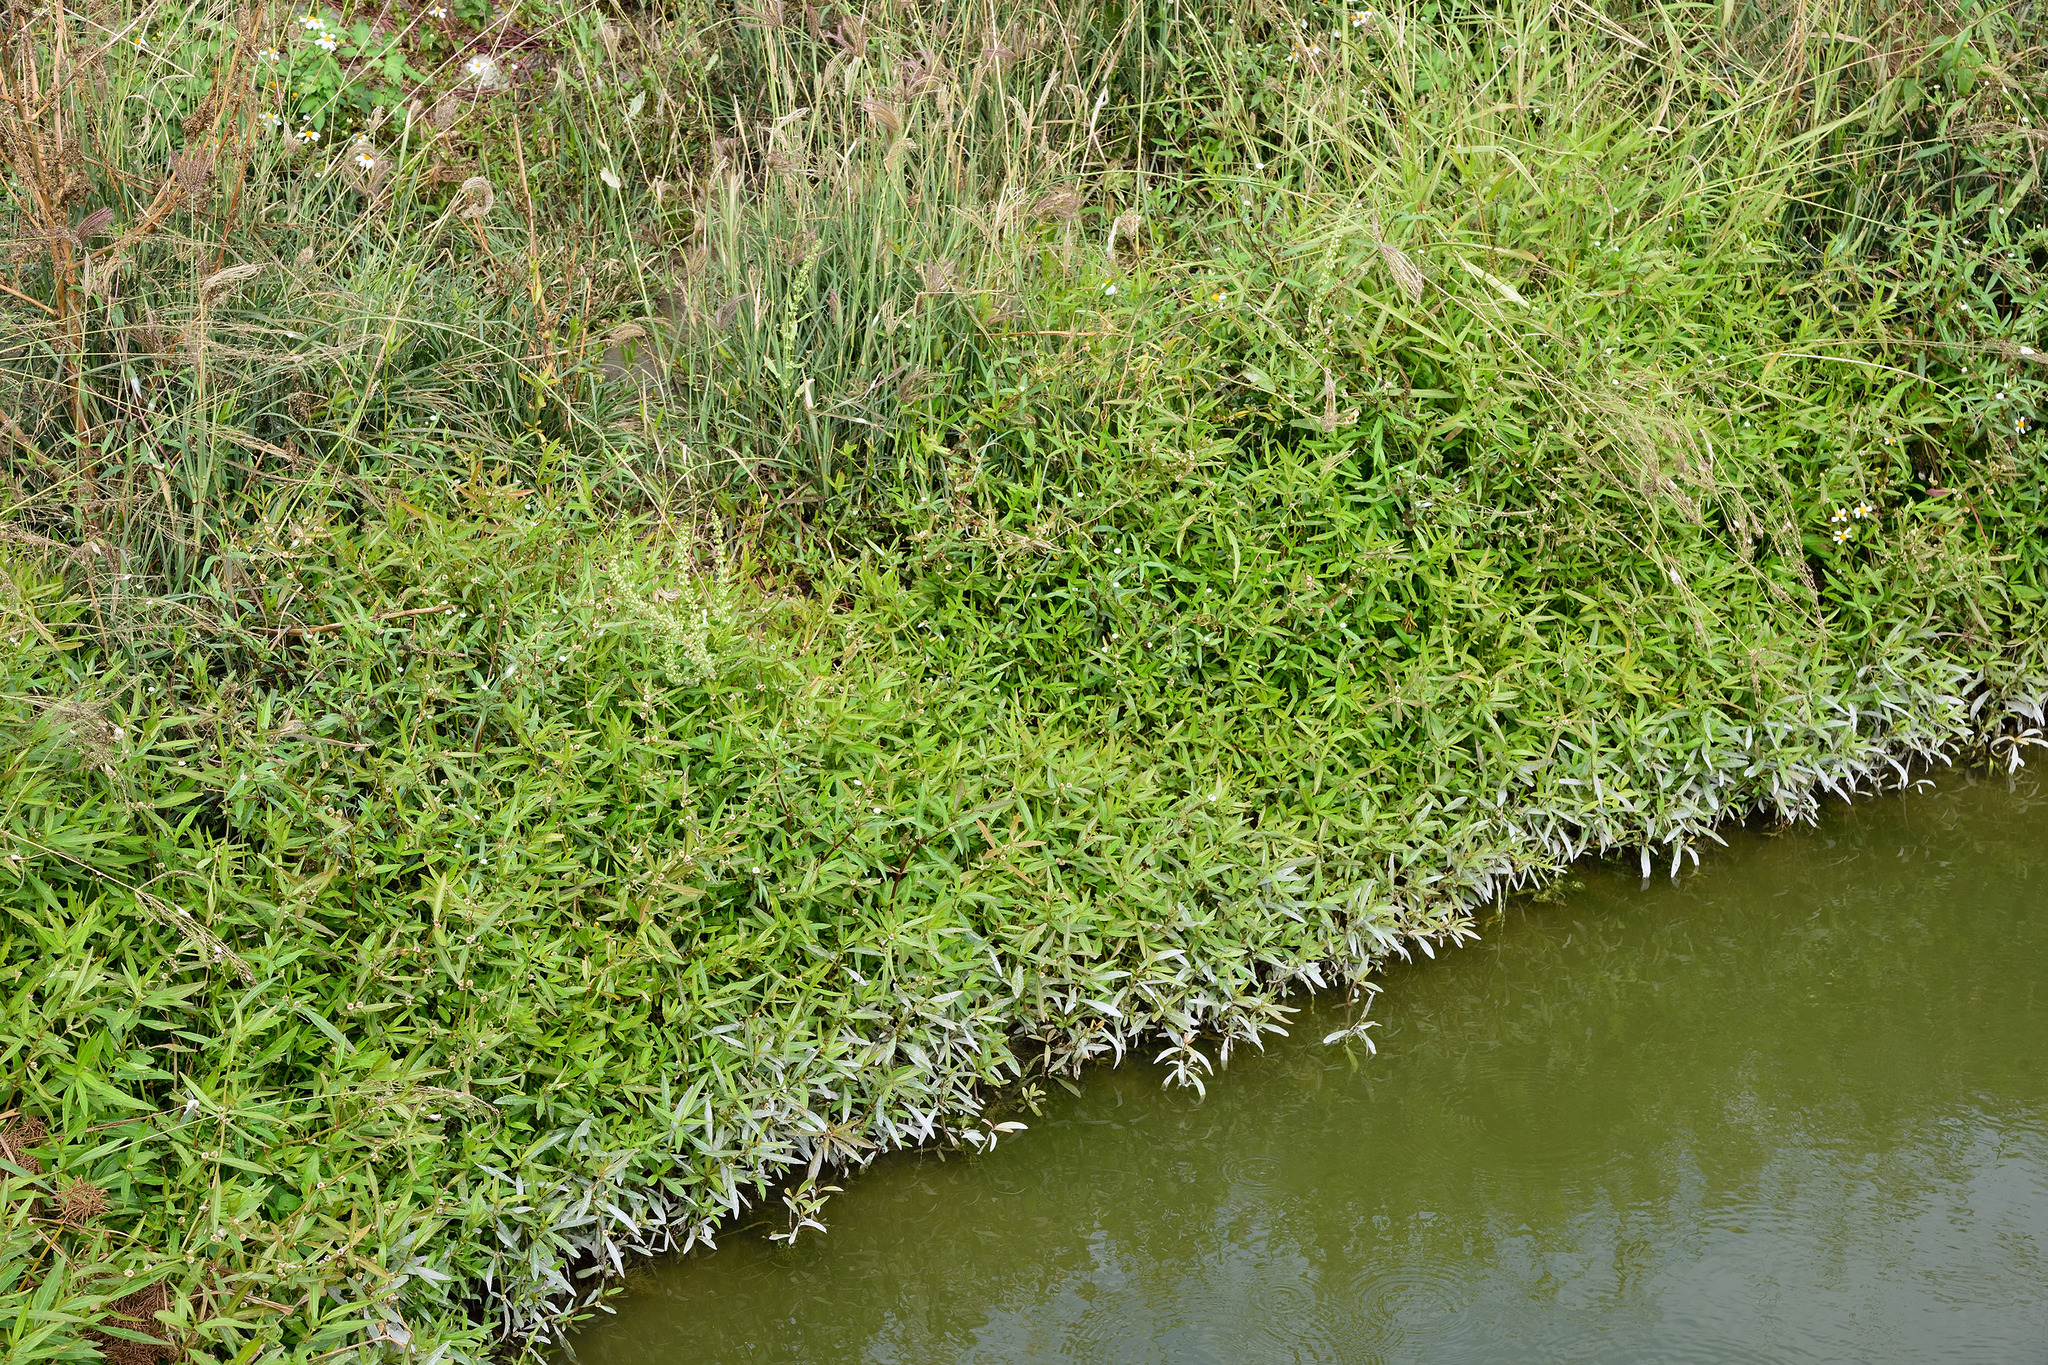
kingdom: Plantae
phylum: Tracheophyta
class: Magnoliopsida
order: Caryophyllales
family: Amaranthaceae
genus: Alternanthera
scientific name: Alternanthera sessilis
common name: Sessile joyweed
